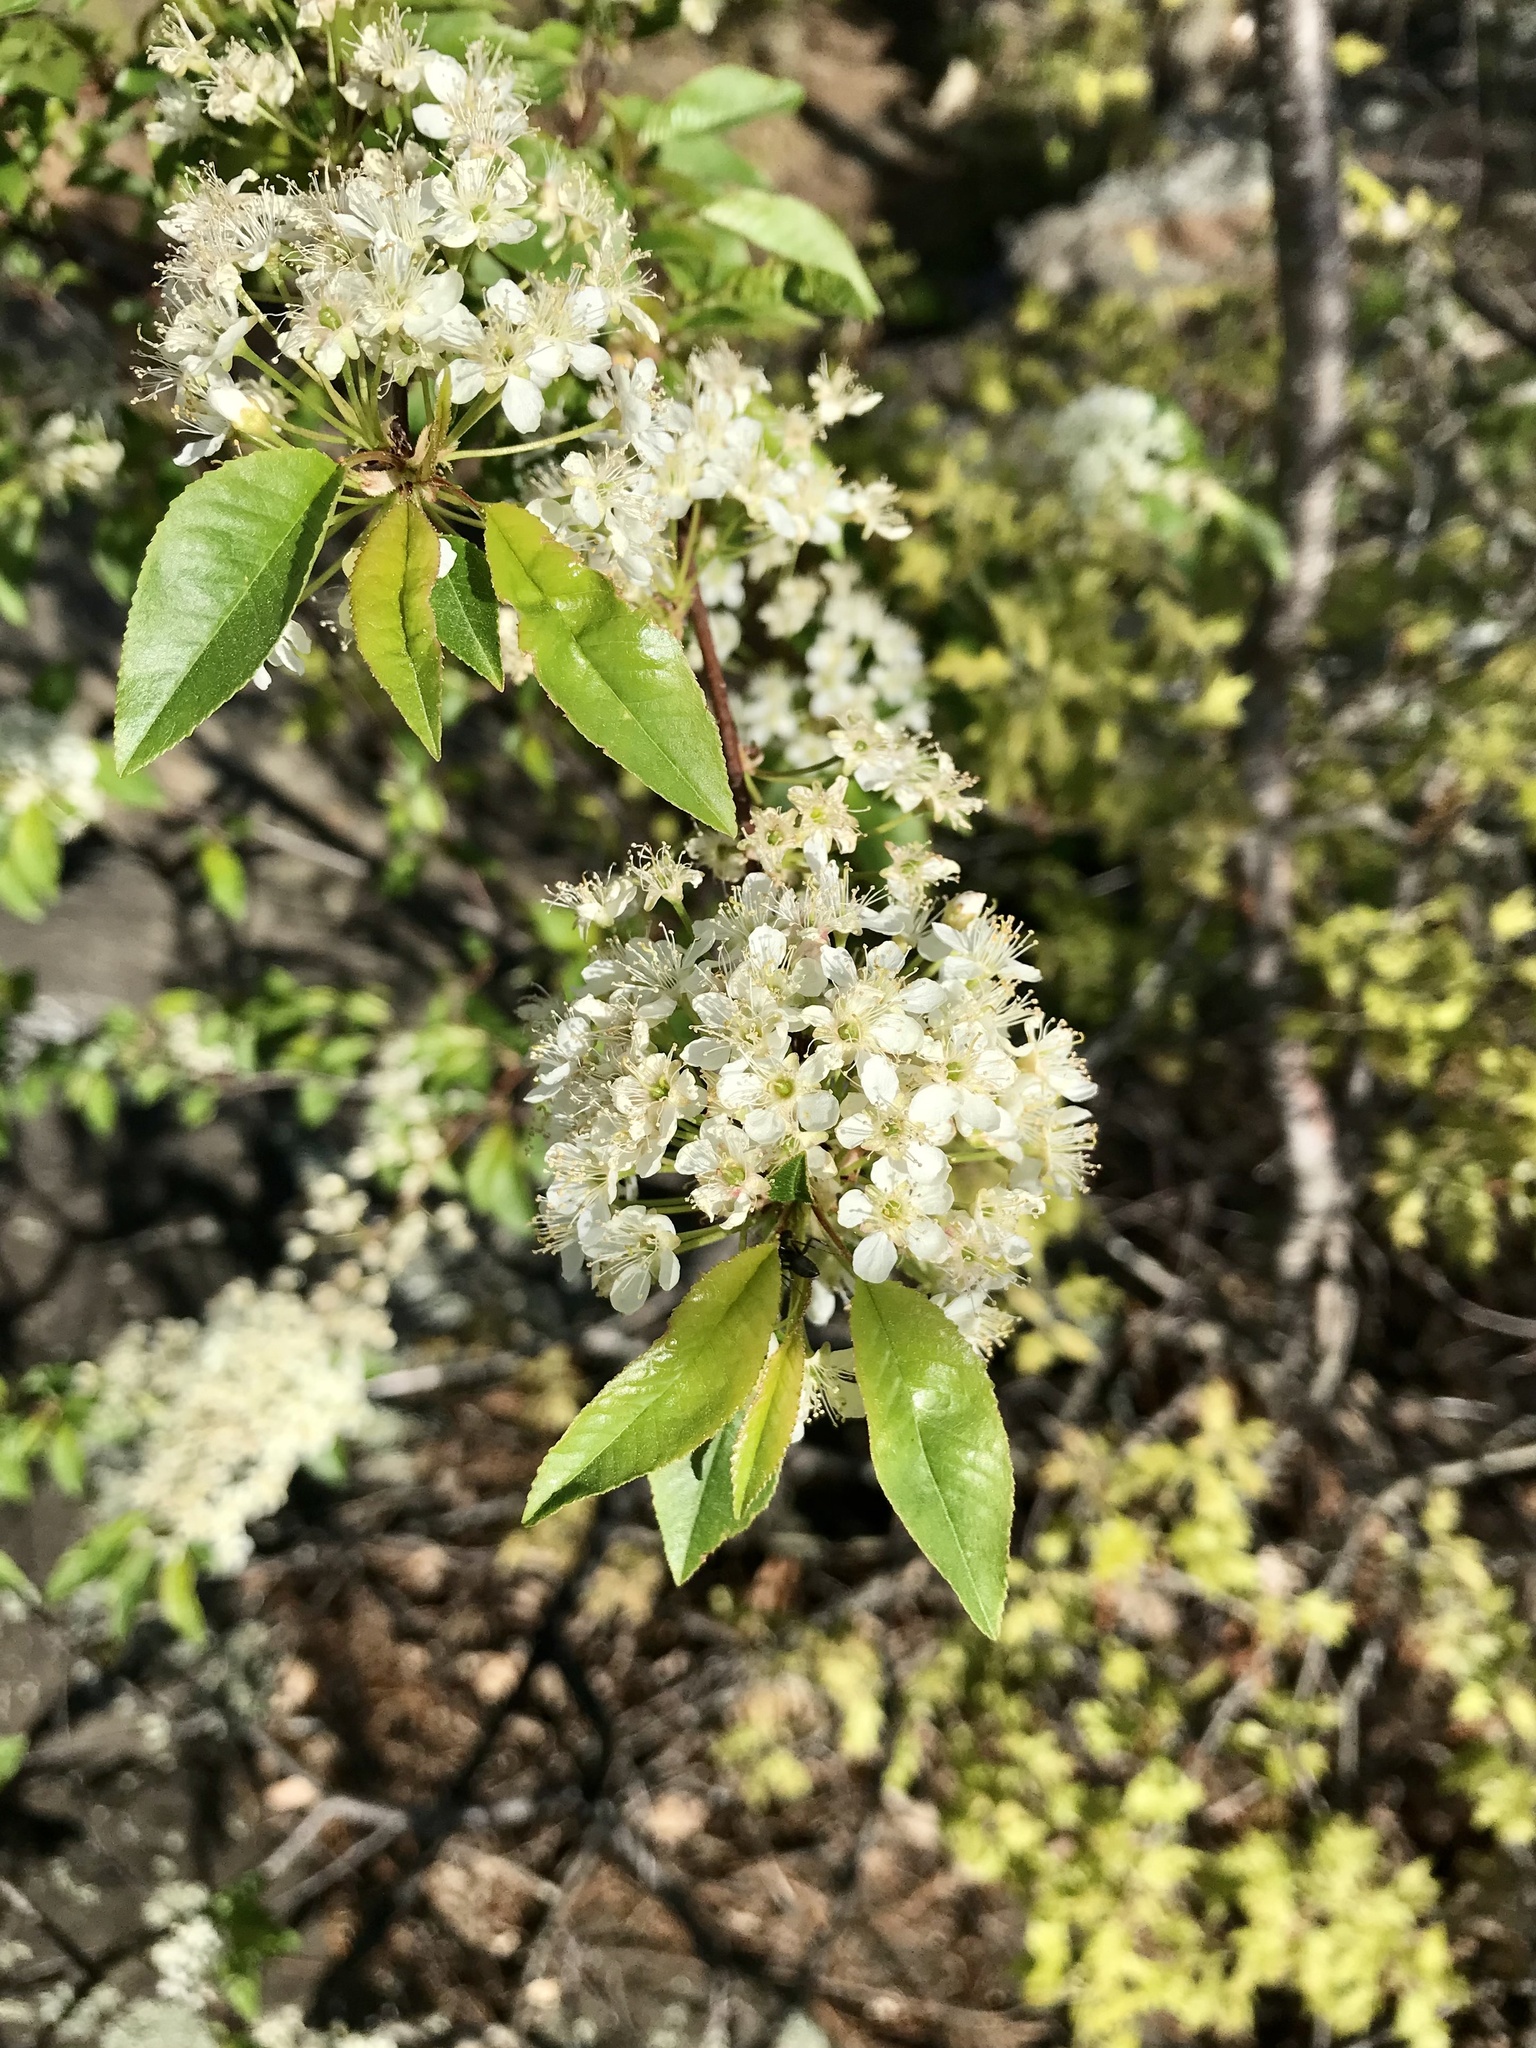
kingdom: Plantae
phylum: Tracheophyta
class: Magnoliopsida
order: Rosales
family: Rosaceae
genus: Prunus
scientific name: Prunus pensylvanica
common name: Pin cherry
